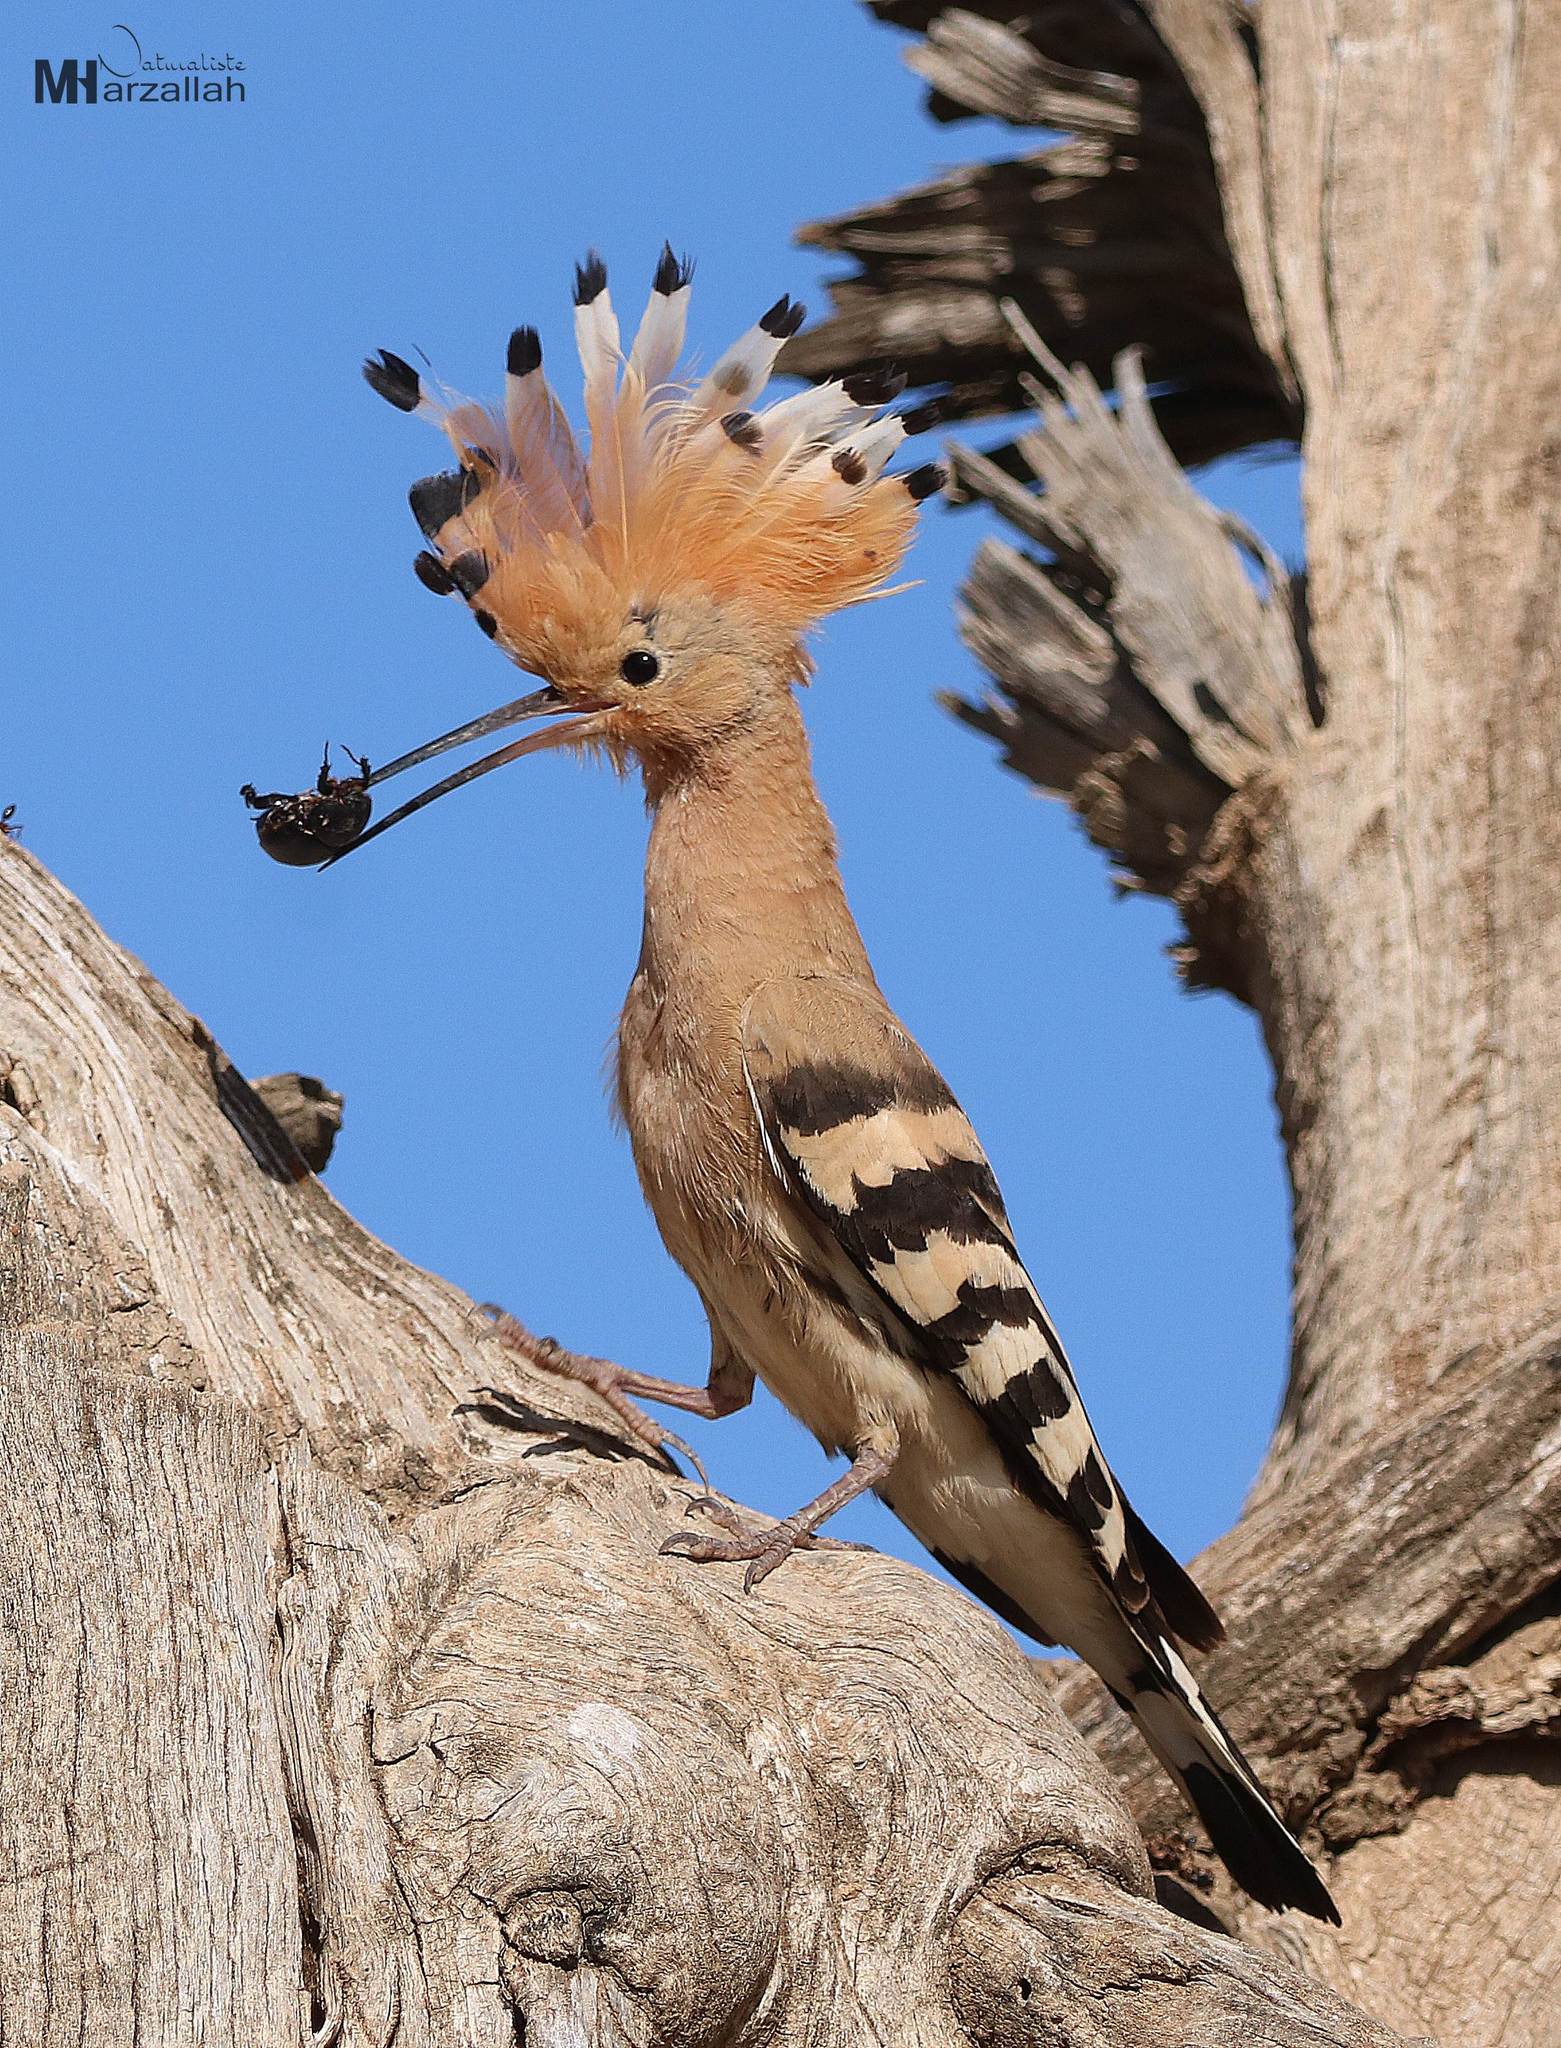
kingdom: Animalia
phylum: Chordata
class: Aves
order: Bucerotiformes
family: Upupidae
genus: Upupa
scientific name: Upupa epops
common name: Eurasian hoopoe
